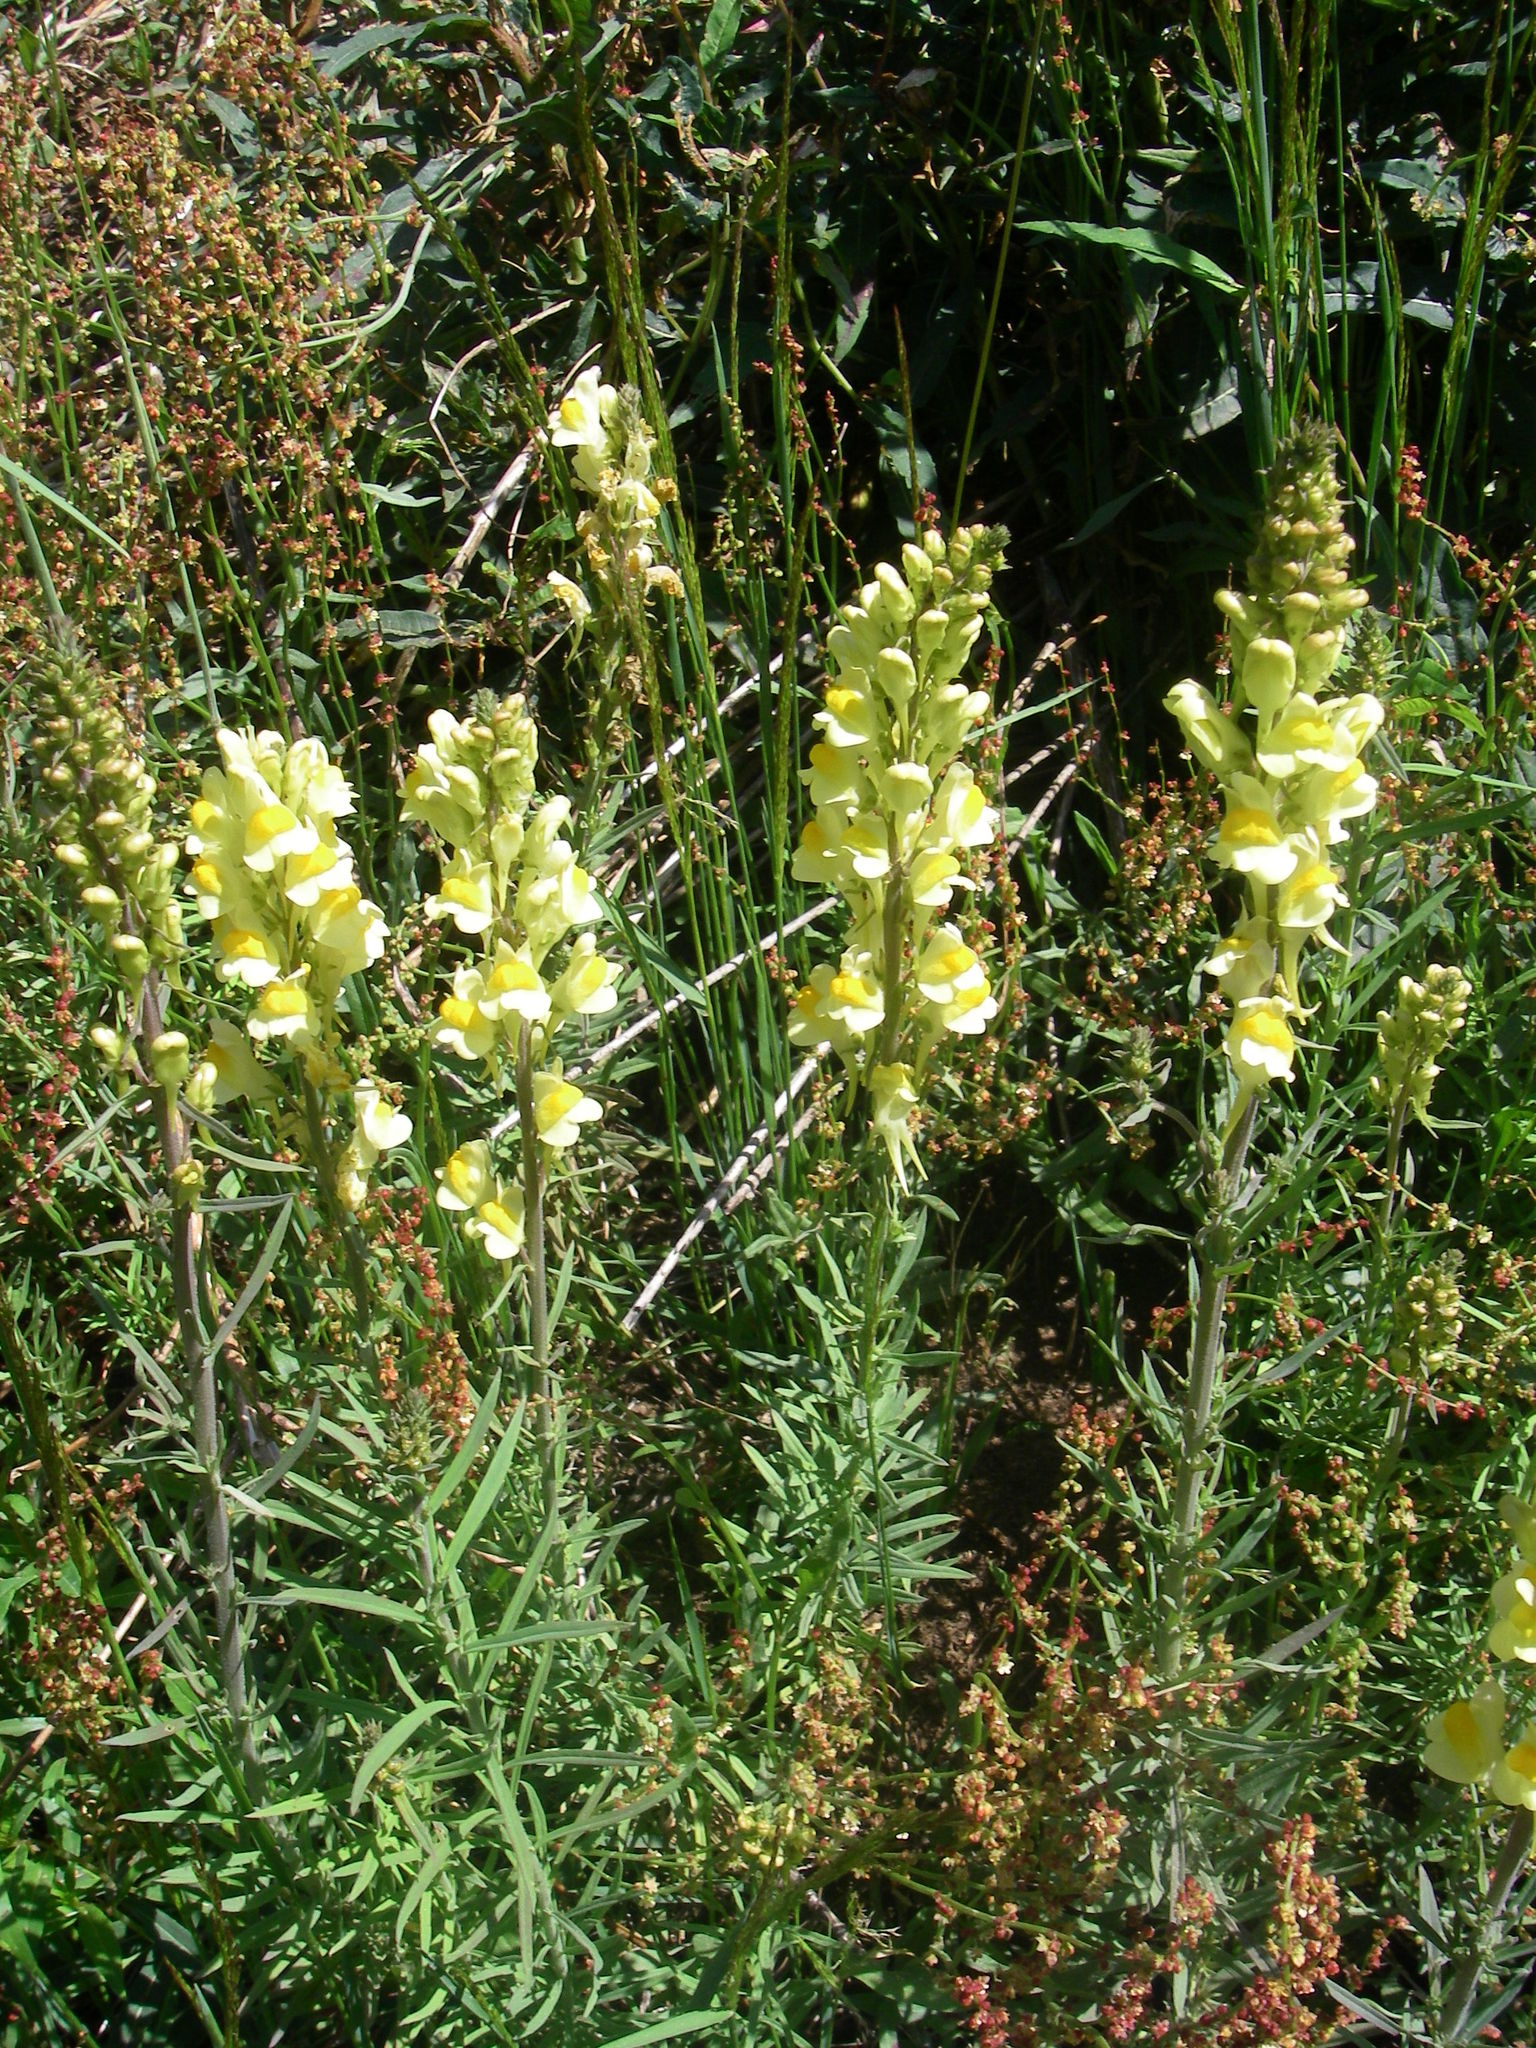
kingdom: Plantae
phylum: Tracheophyta
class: Magnoliopsida
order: Lamiales
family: Plantaginaceae
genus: Linaria
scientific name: Linaria vulgaris
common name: Butter and eggs
